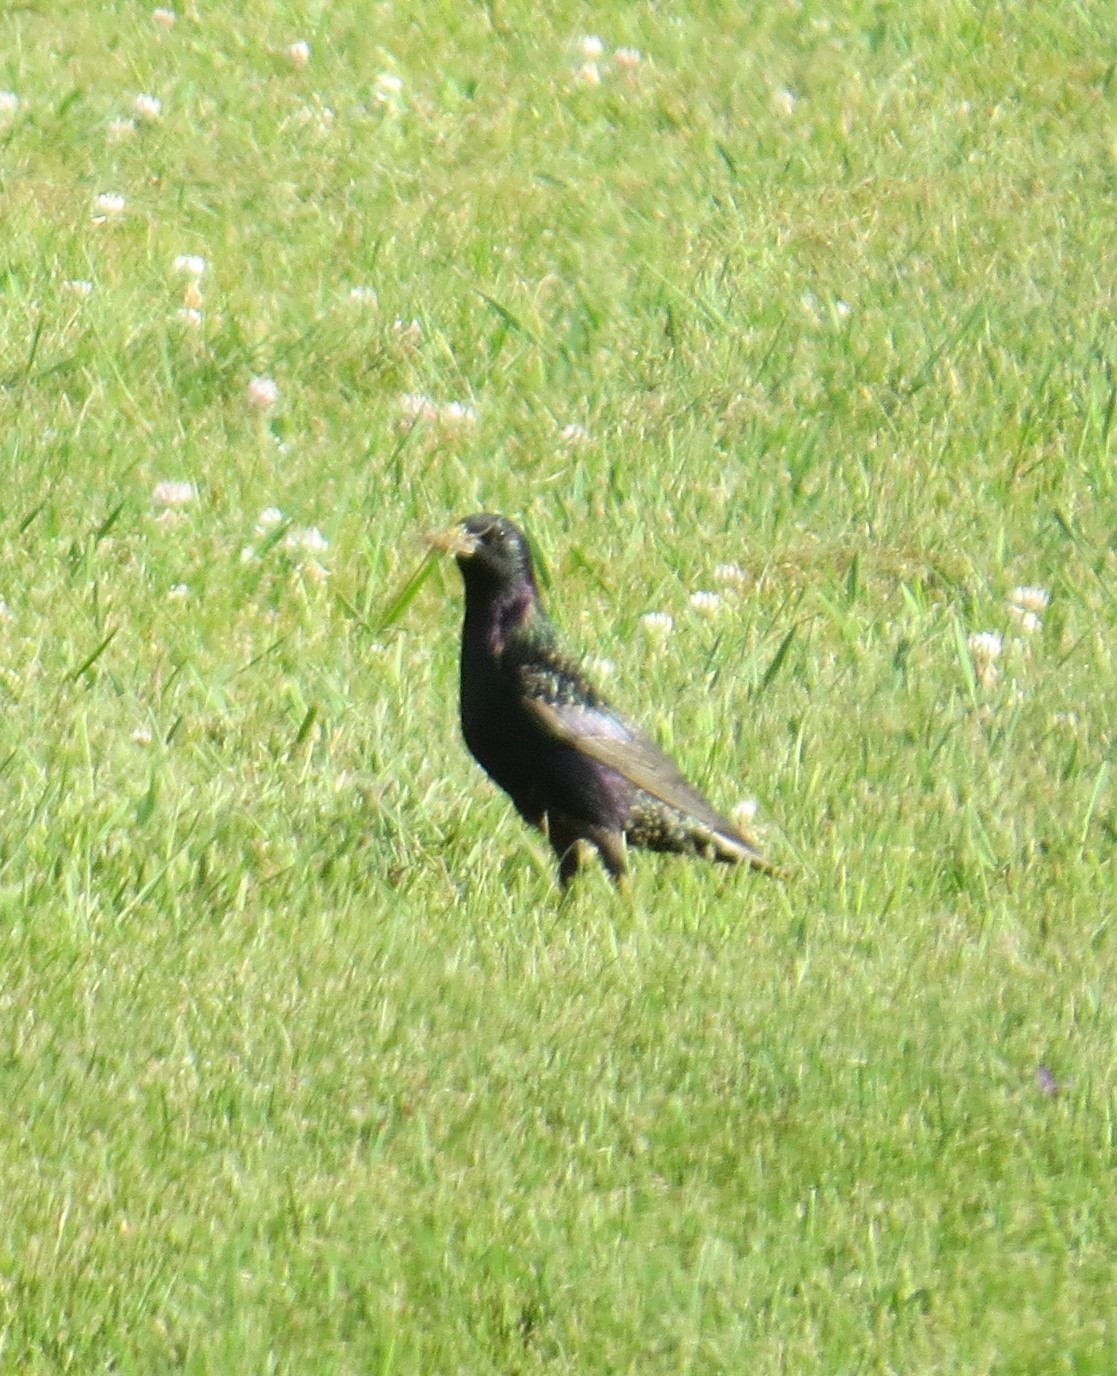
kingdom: Animalia
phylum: Chordata
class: Aves
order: Passeriformes
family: Sturnidae
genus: Sturnus
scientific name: Sturnus vulgaris
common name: Common starling
